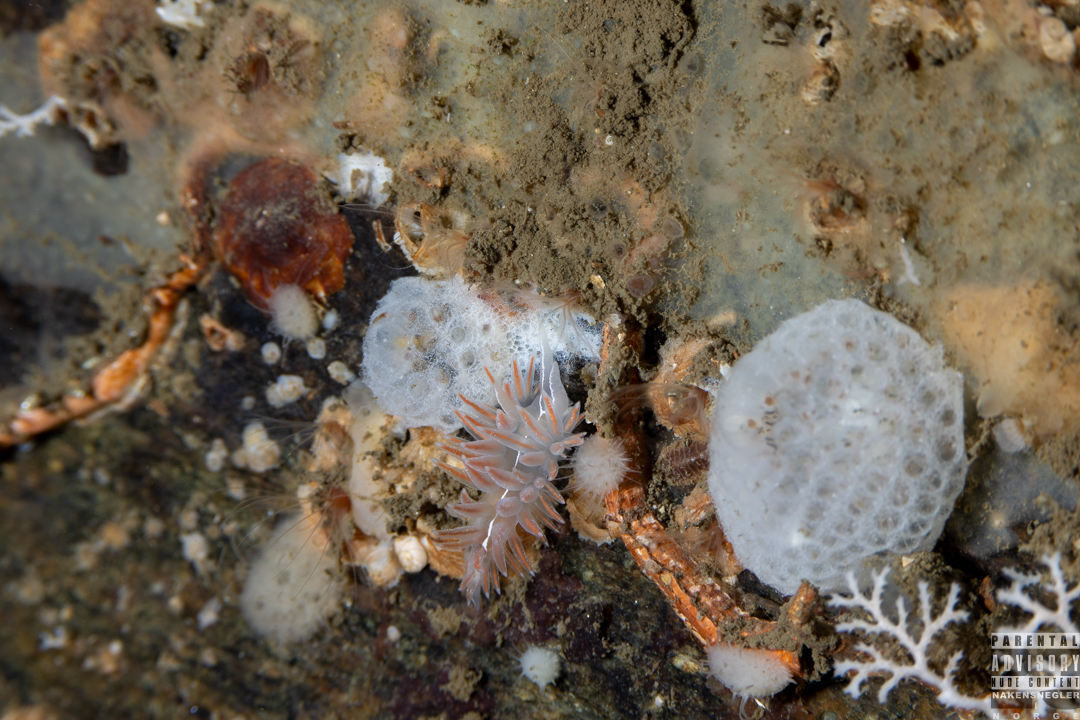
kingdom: Animalia
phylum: Mollusca
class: Gastropoda
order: Nudibranchia
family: Coryphellidae
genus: Coryphella
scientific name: Coryphella chriskaugei
